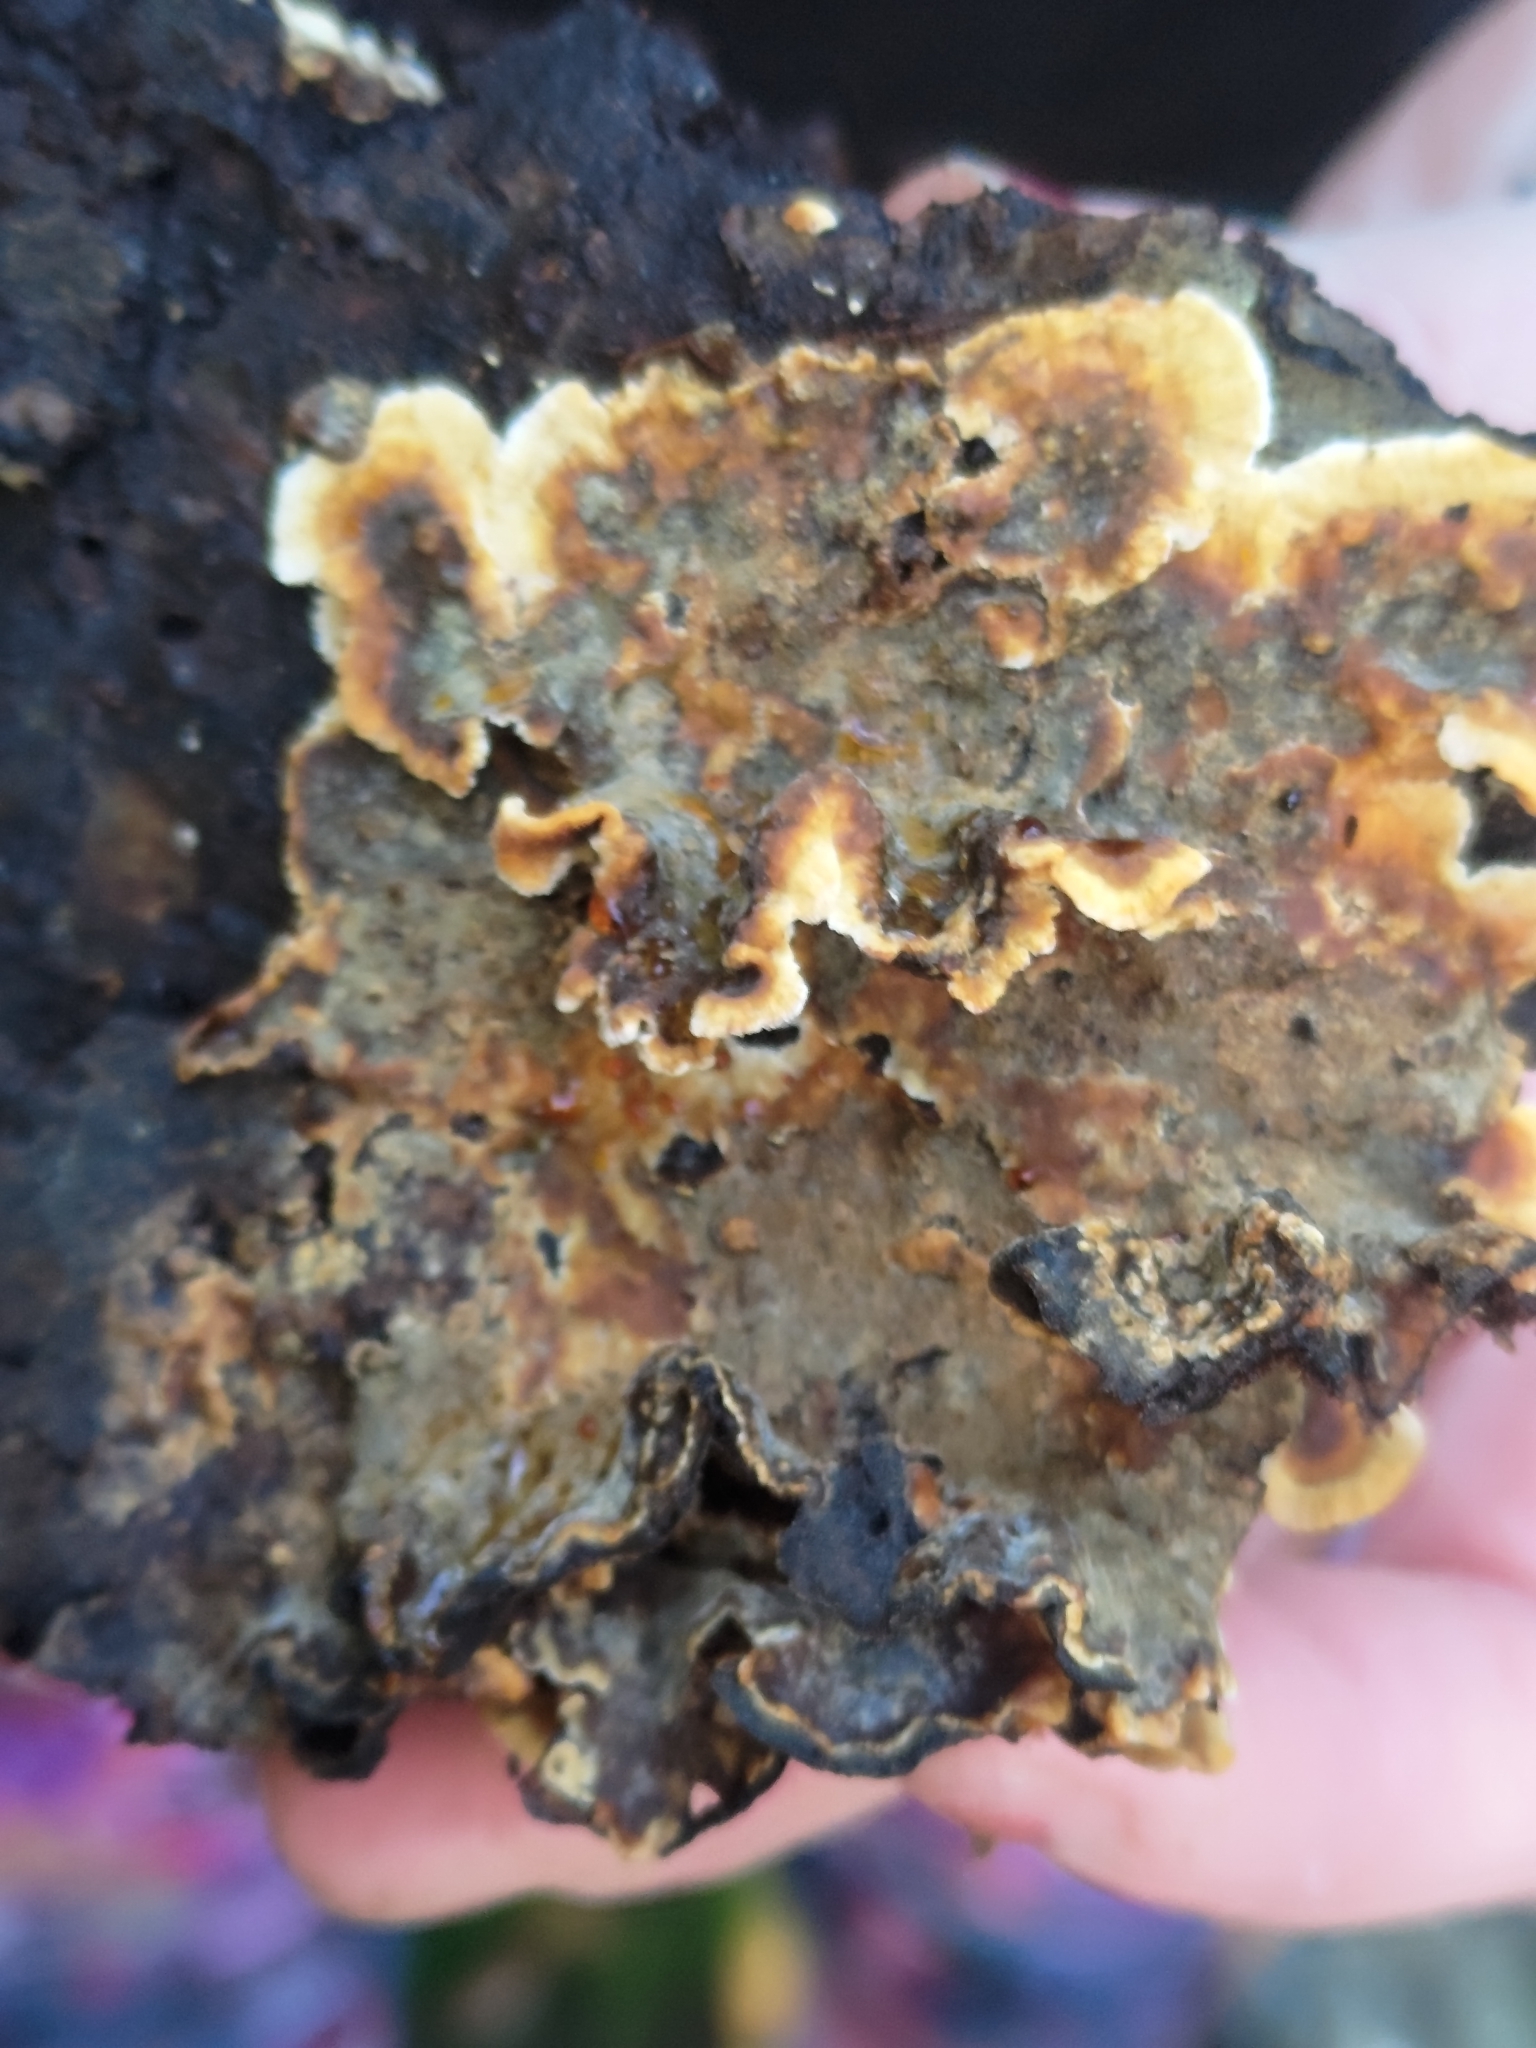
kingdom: Fungi
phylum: Basidiomycota
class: Agaricomycetes
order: Russulales
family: Stereaceae
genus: Stereum
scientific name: Stereum hirsutum
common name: Hairy curtain crust
